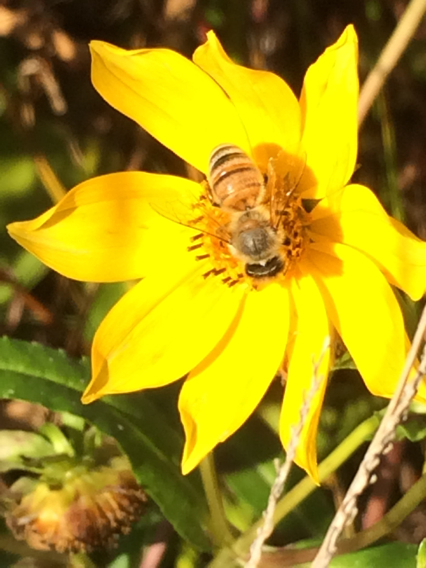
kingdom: Animalia
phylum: Arthropoda
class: Insecta
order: Hymenoptera
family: Apidae
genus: Apis
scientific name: Apis mellifera
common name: Honey bee
